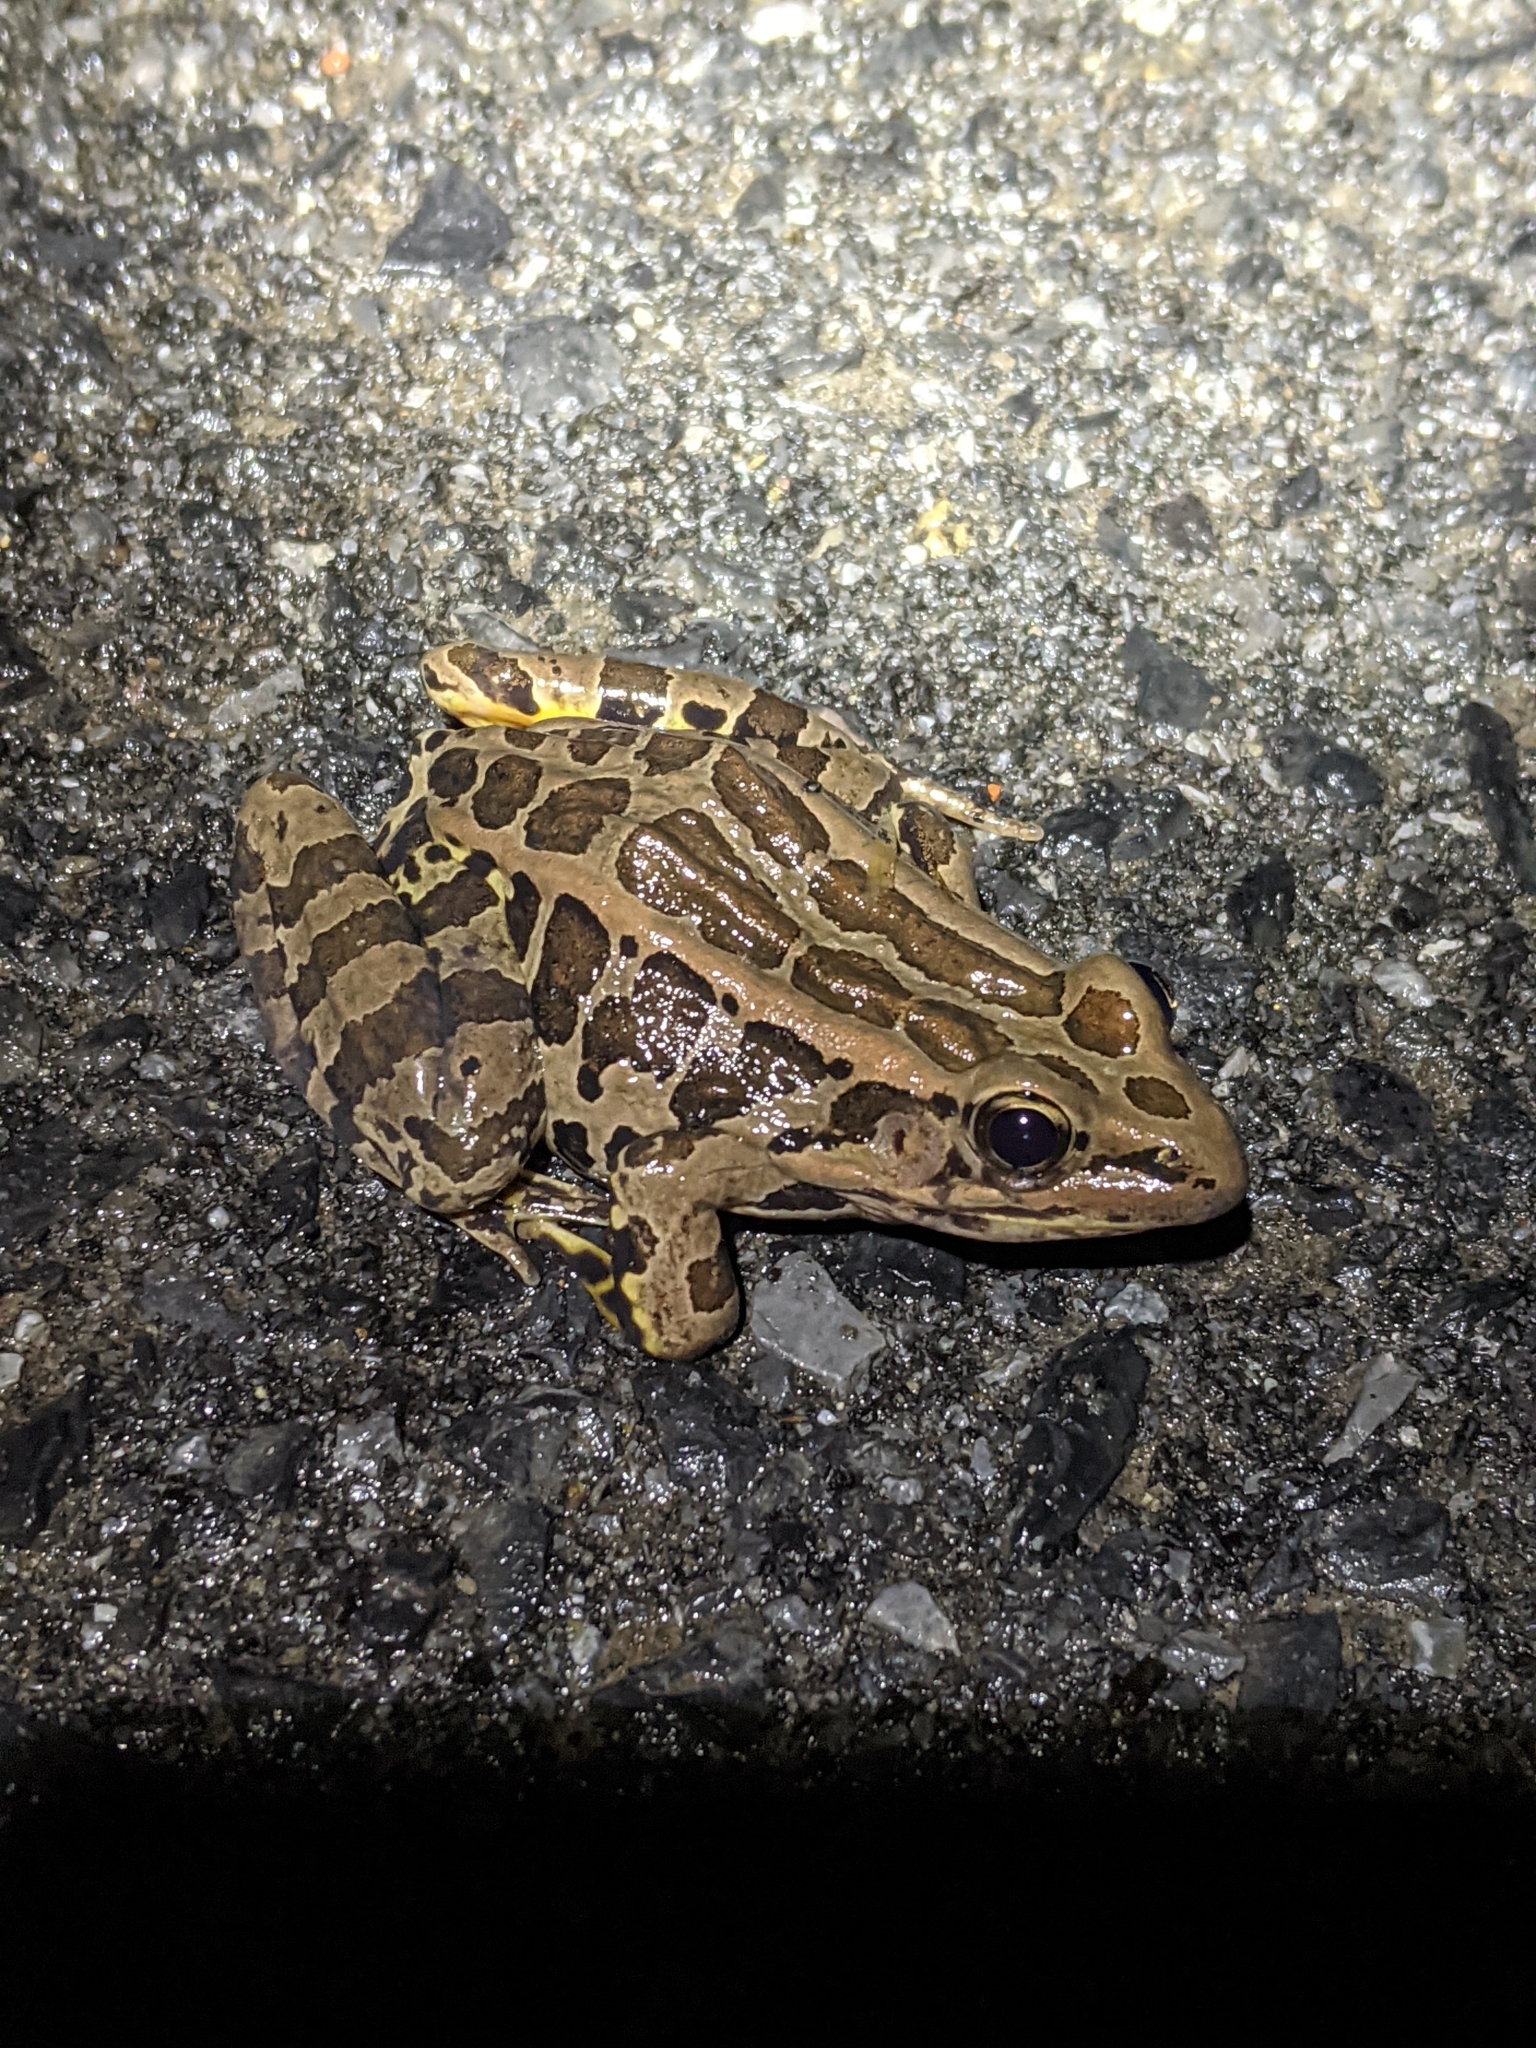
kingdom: Animalia
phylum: Chordata
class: Amphibia
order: Anura
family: Ranidae
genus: Lithobates
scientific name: Lithobates palustris
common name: Pickerel frog
